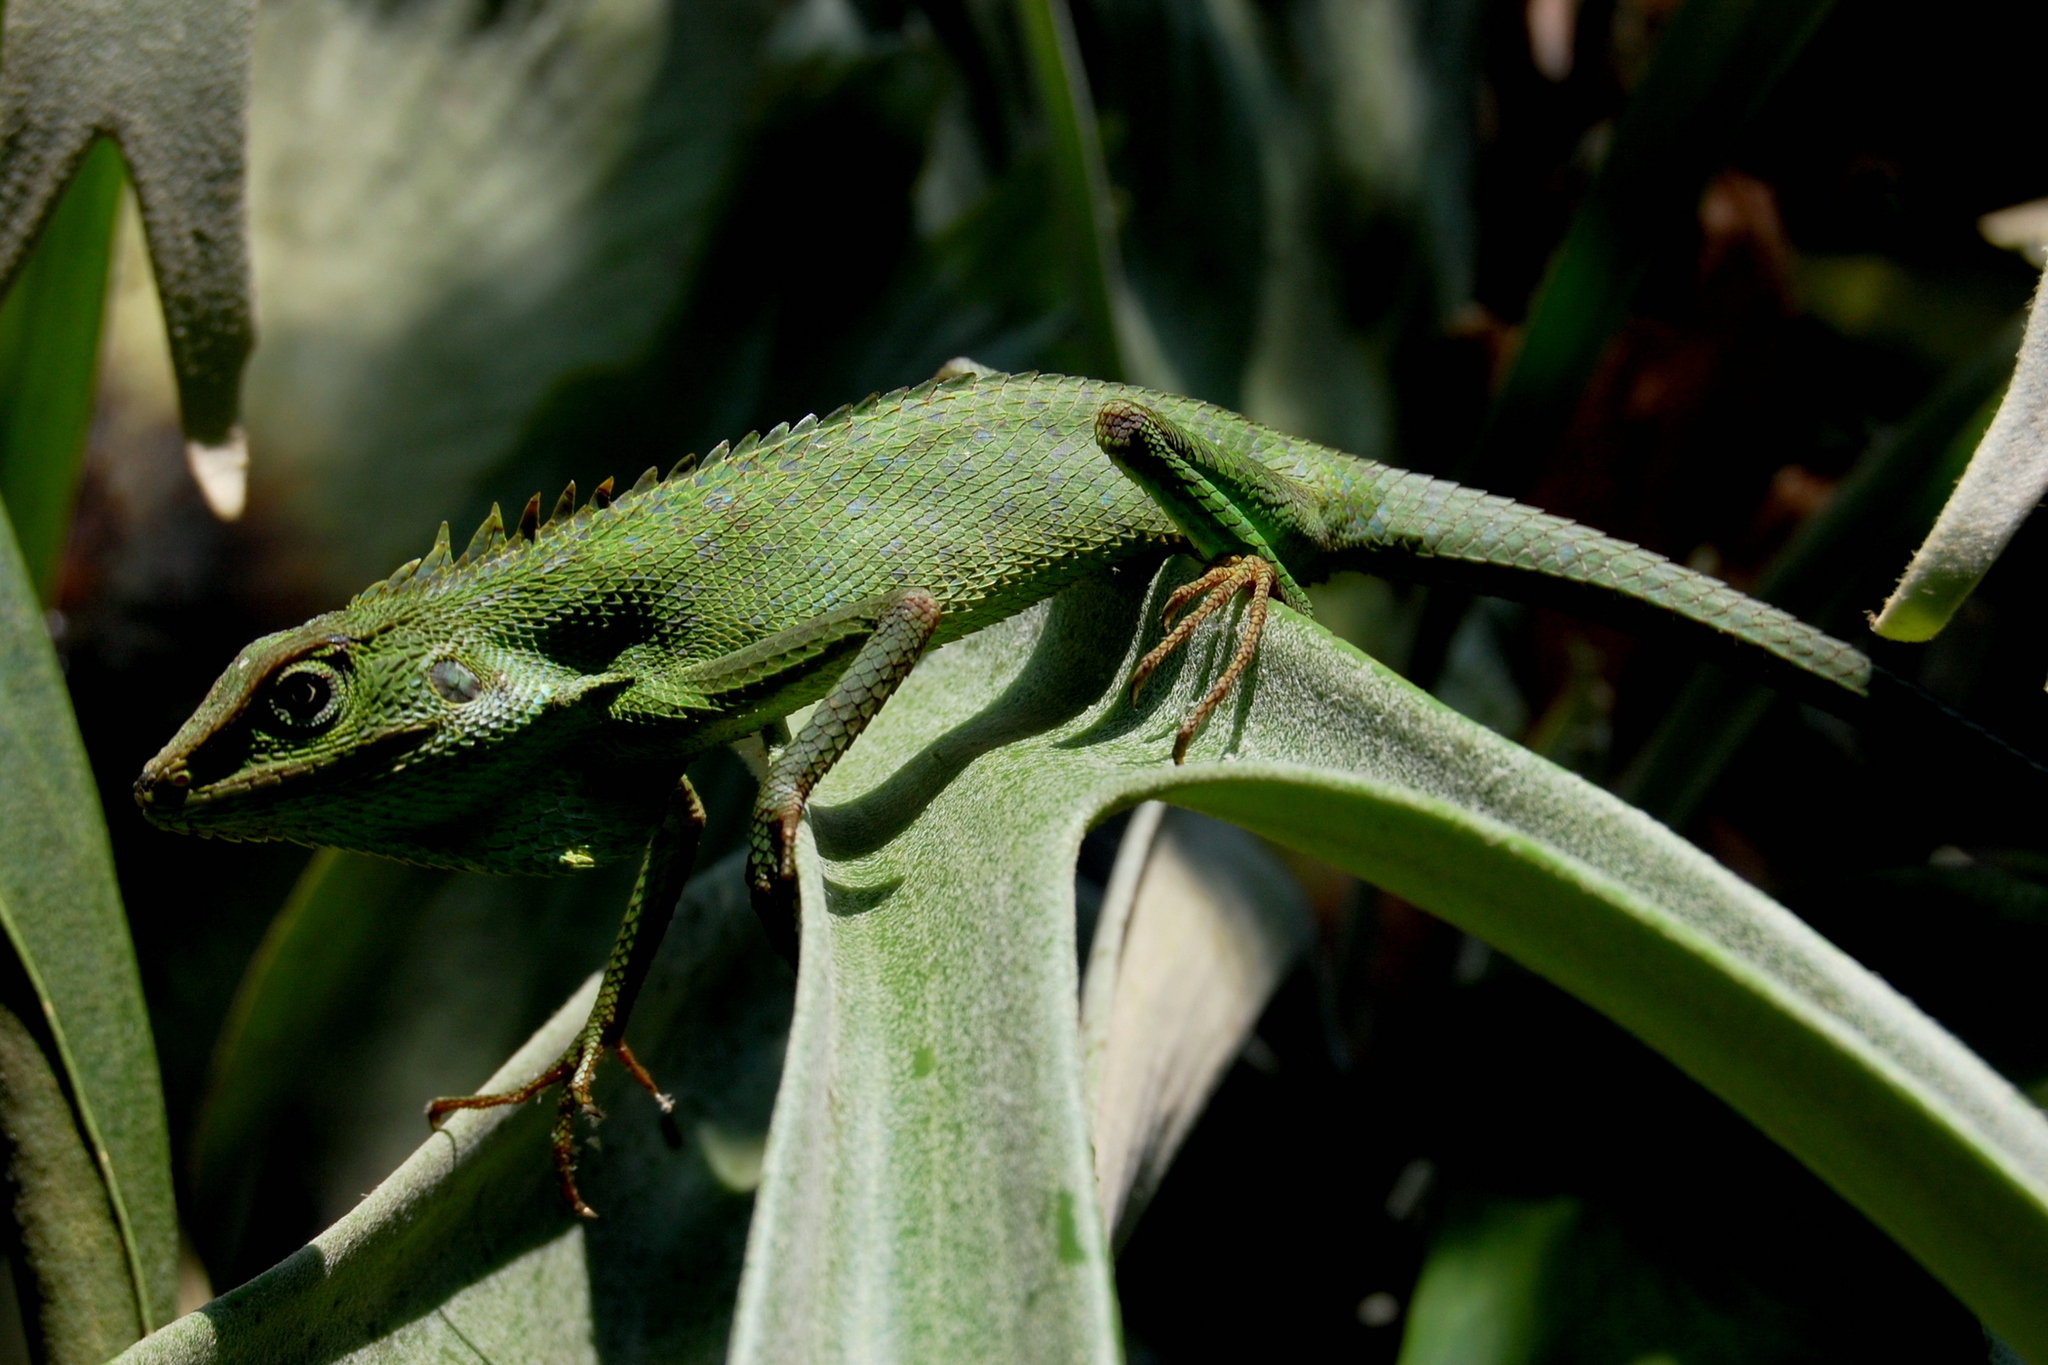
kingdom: Animalia
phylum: Chordata
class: Squamata
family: Agamidae
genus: Bronchocela
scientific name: Bronchocela jubata
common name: Maned forest lizard
